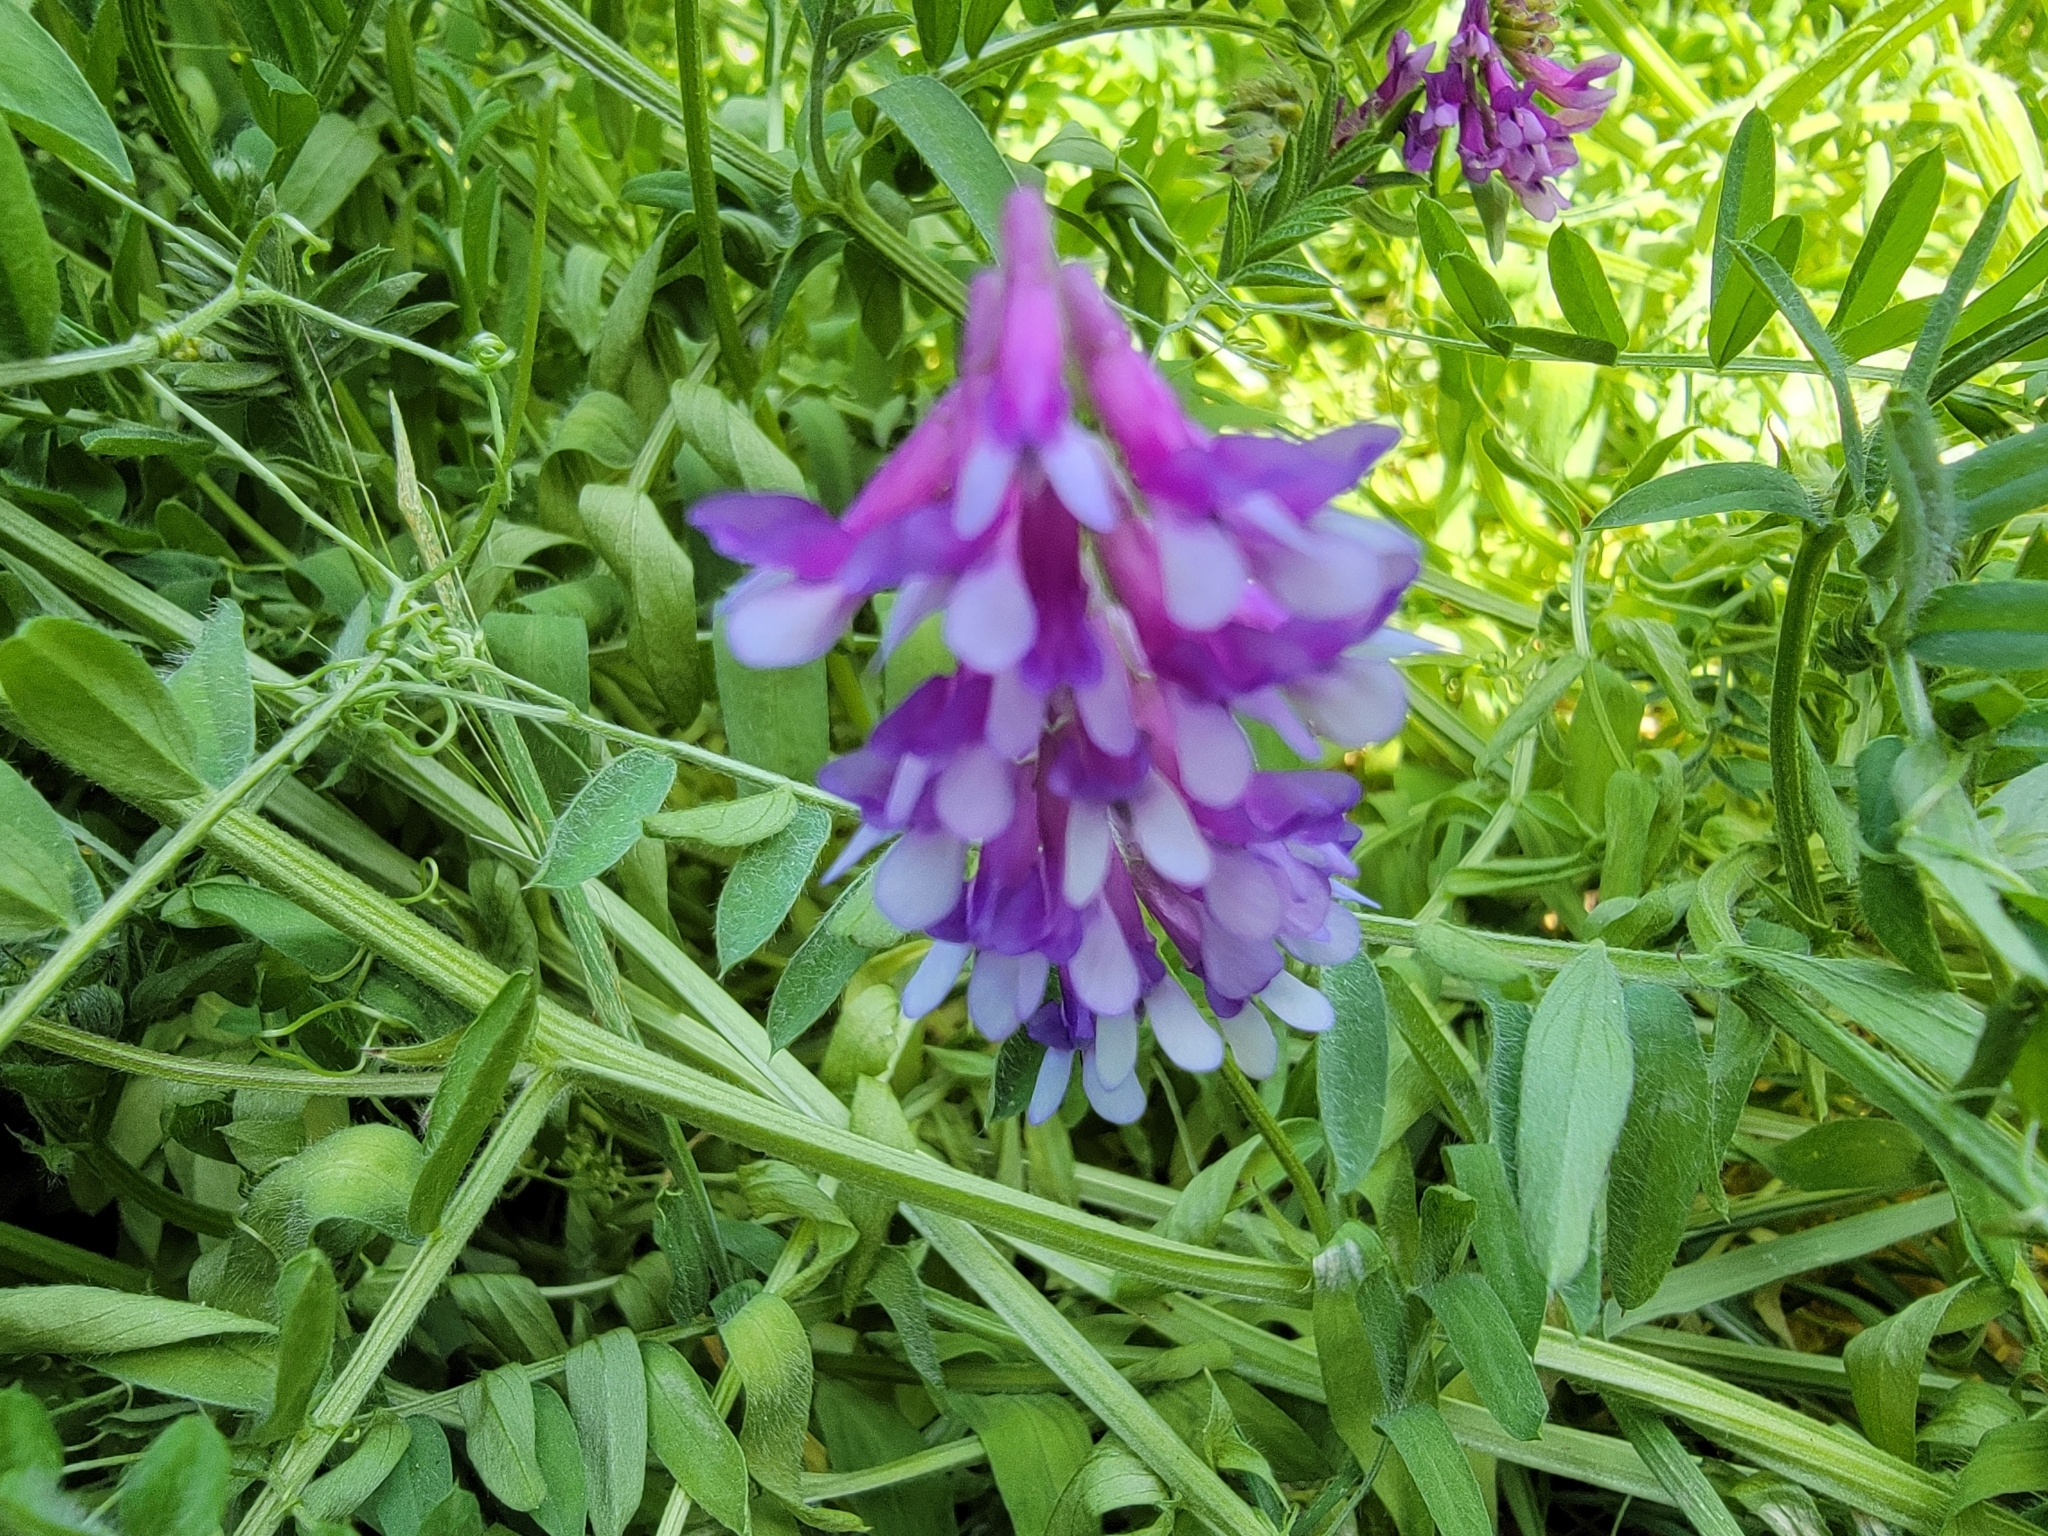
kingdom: Plantae
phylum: Tracheophyta
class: Magnoliopsida
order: Fabales
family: Fabaceae
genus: Vicia
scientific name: Vicia villosa
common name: Fodder vetch
